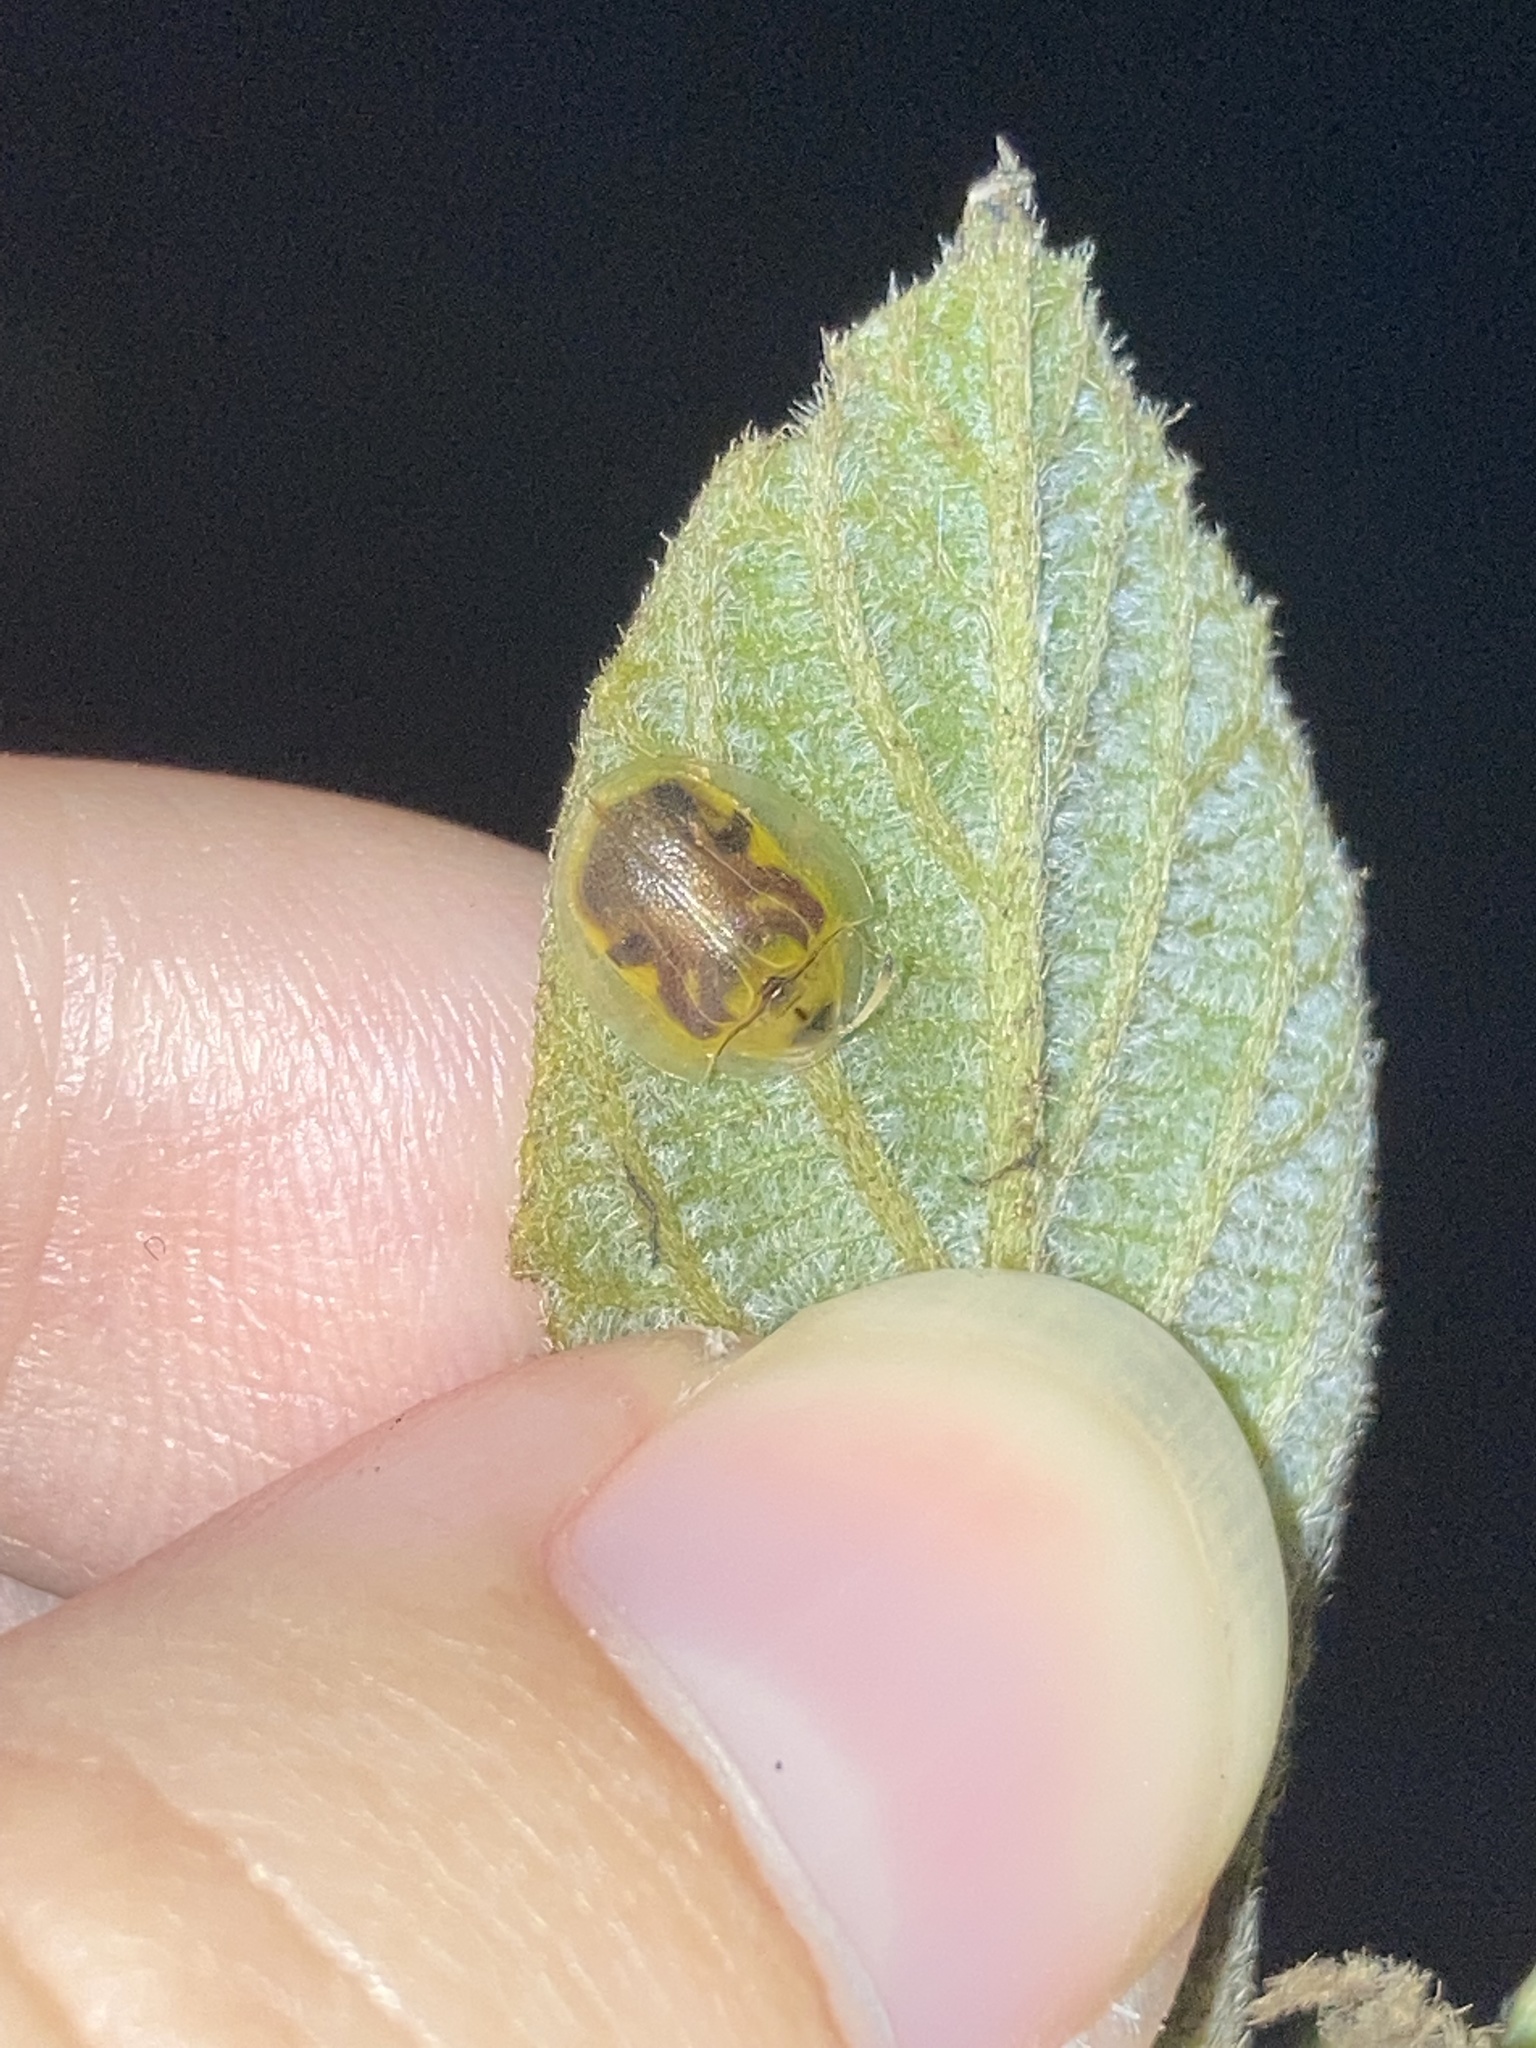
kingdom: Animalia
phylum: Arthropoda
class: Insecta
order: Coleoptera
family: Chrysomelidae
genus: Eurypepla
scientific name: Eurypepla calochroma
